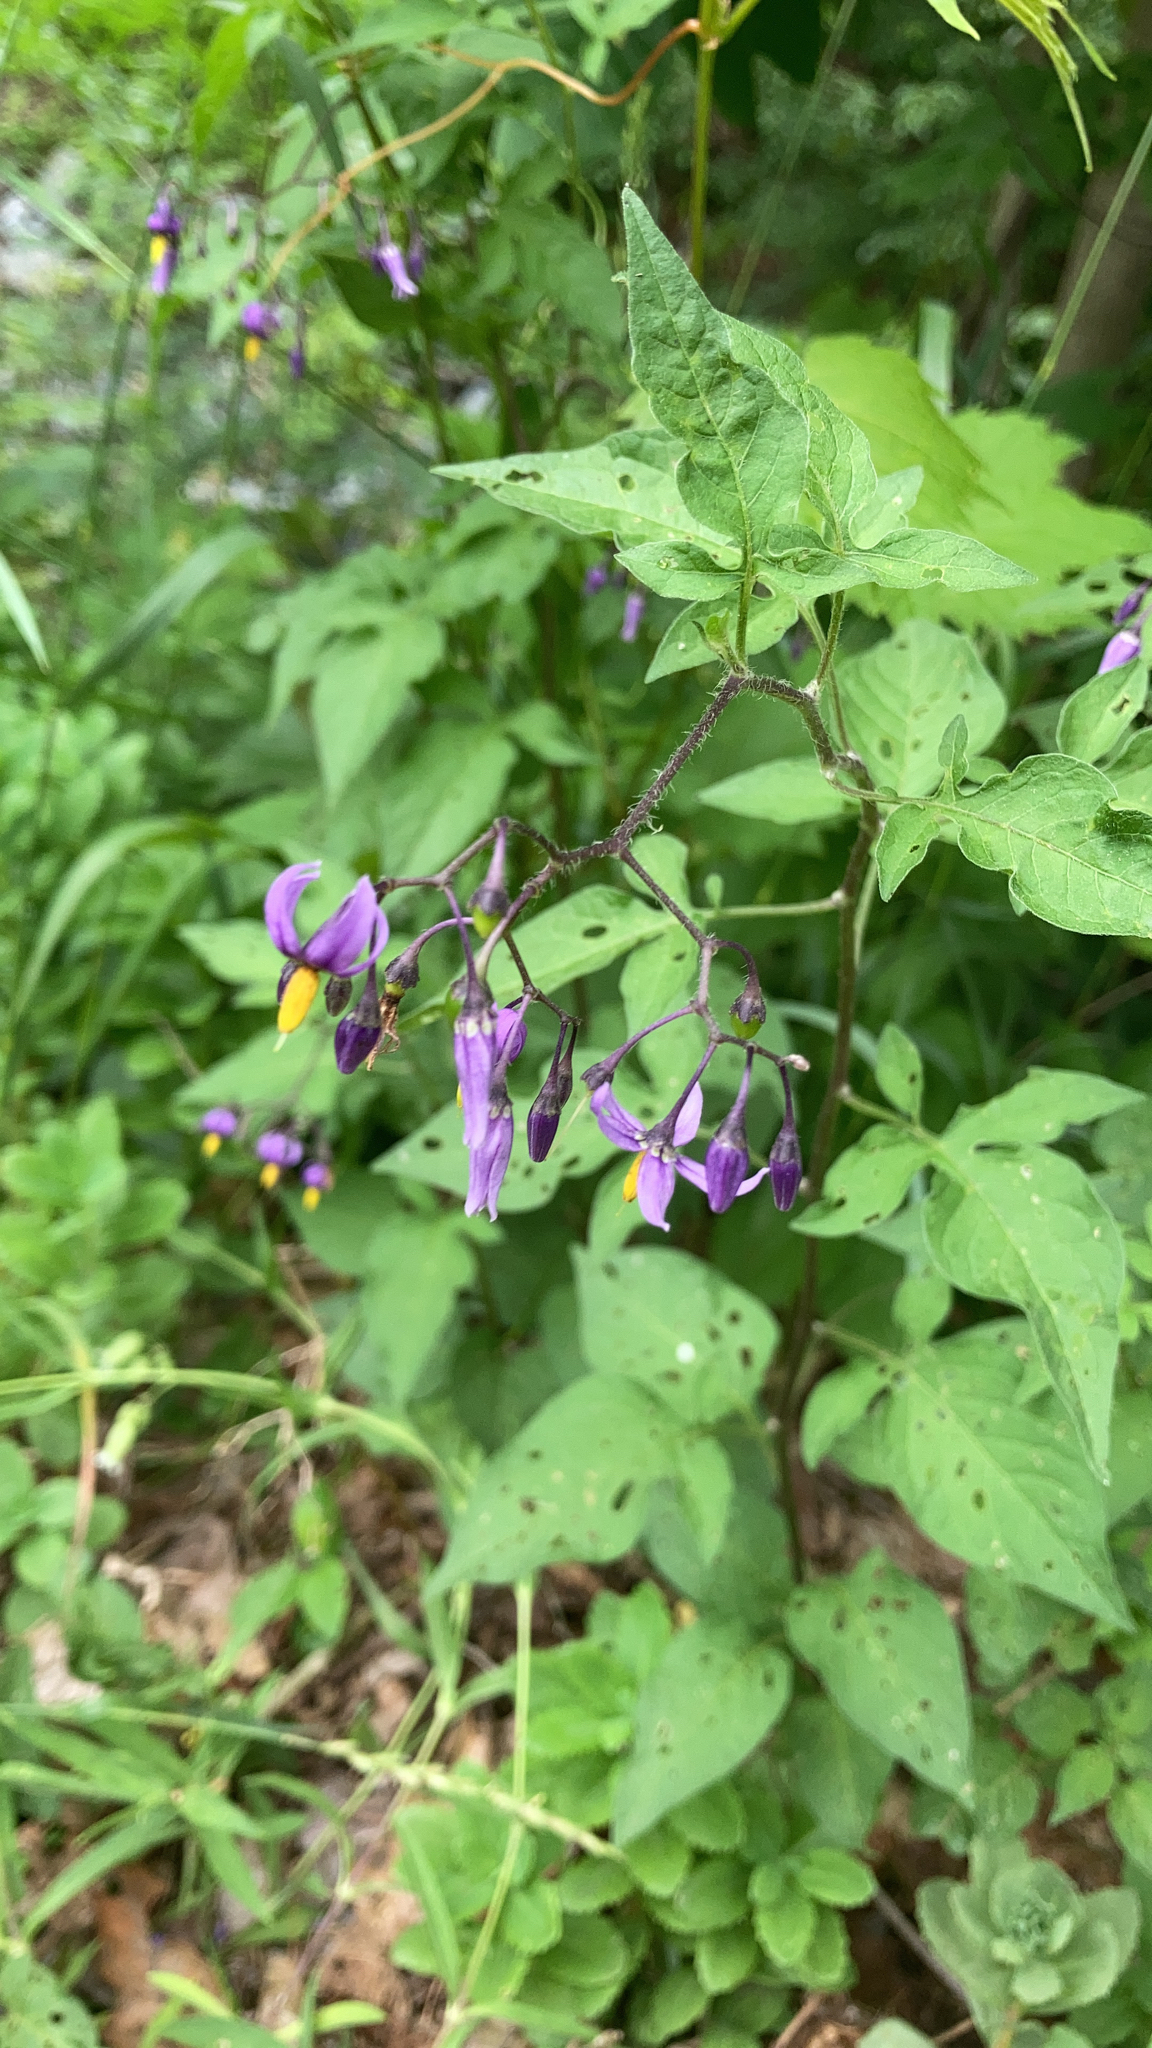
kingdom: Plantae
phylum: Tracheophyta
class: Magnoliopsida
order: Solanales
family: Solanaceae
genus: Solanum
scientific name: Solanum dulcamara
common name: Climbing nightshade
